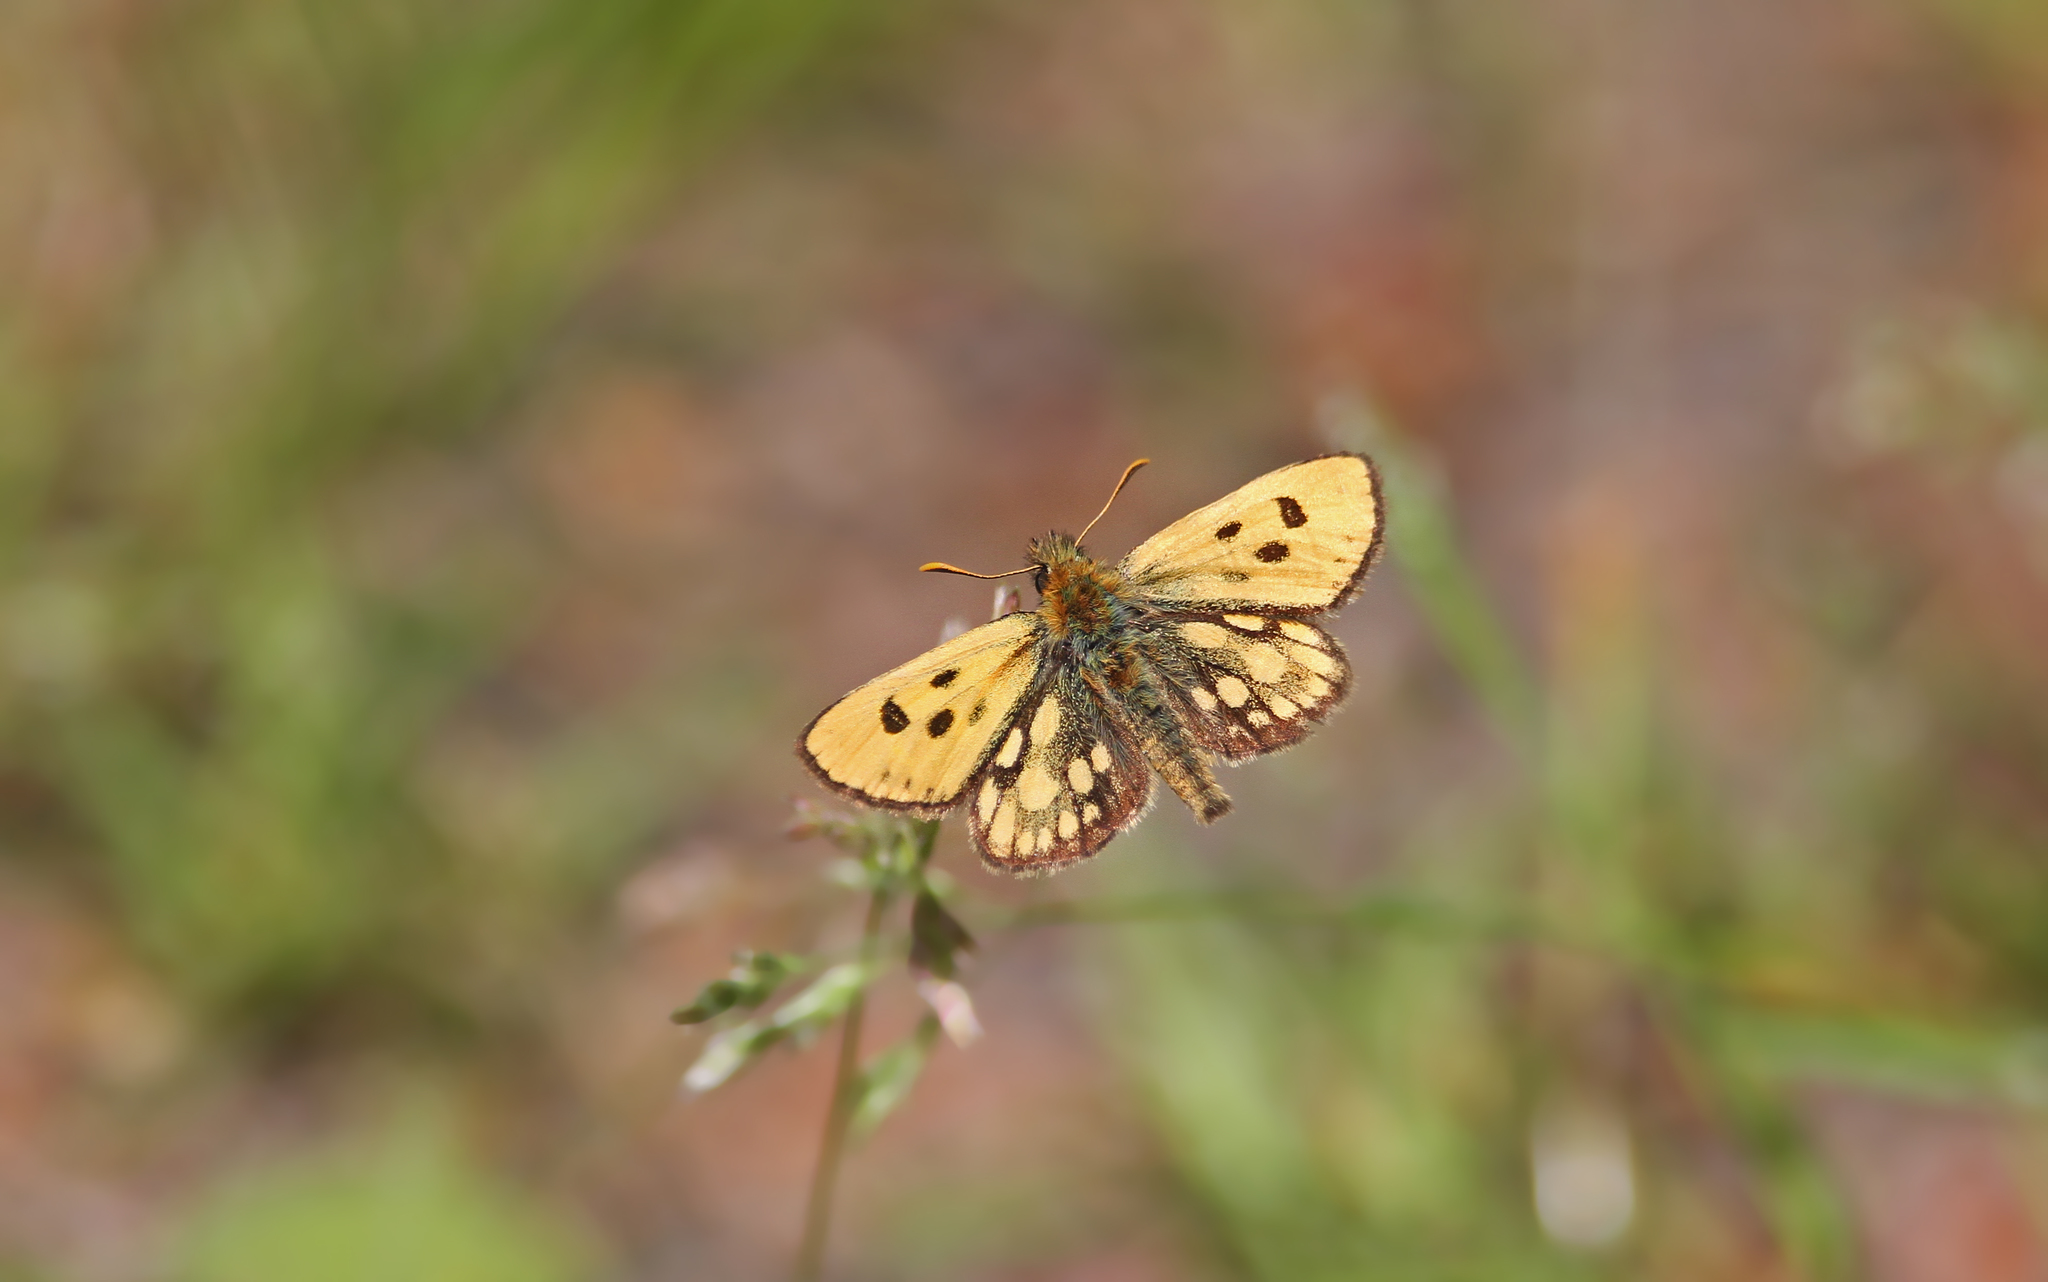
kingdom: Animalia
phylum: Arthropoda
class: Insecta
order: Lepidoptera
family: Hesperiidae
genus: Carterocephalus
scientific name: Carterocephalus silvicola
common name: Northern chequered skipper
